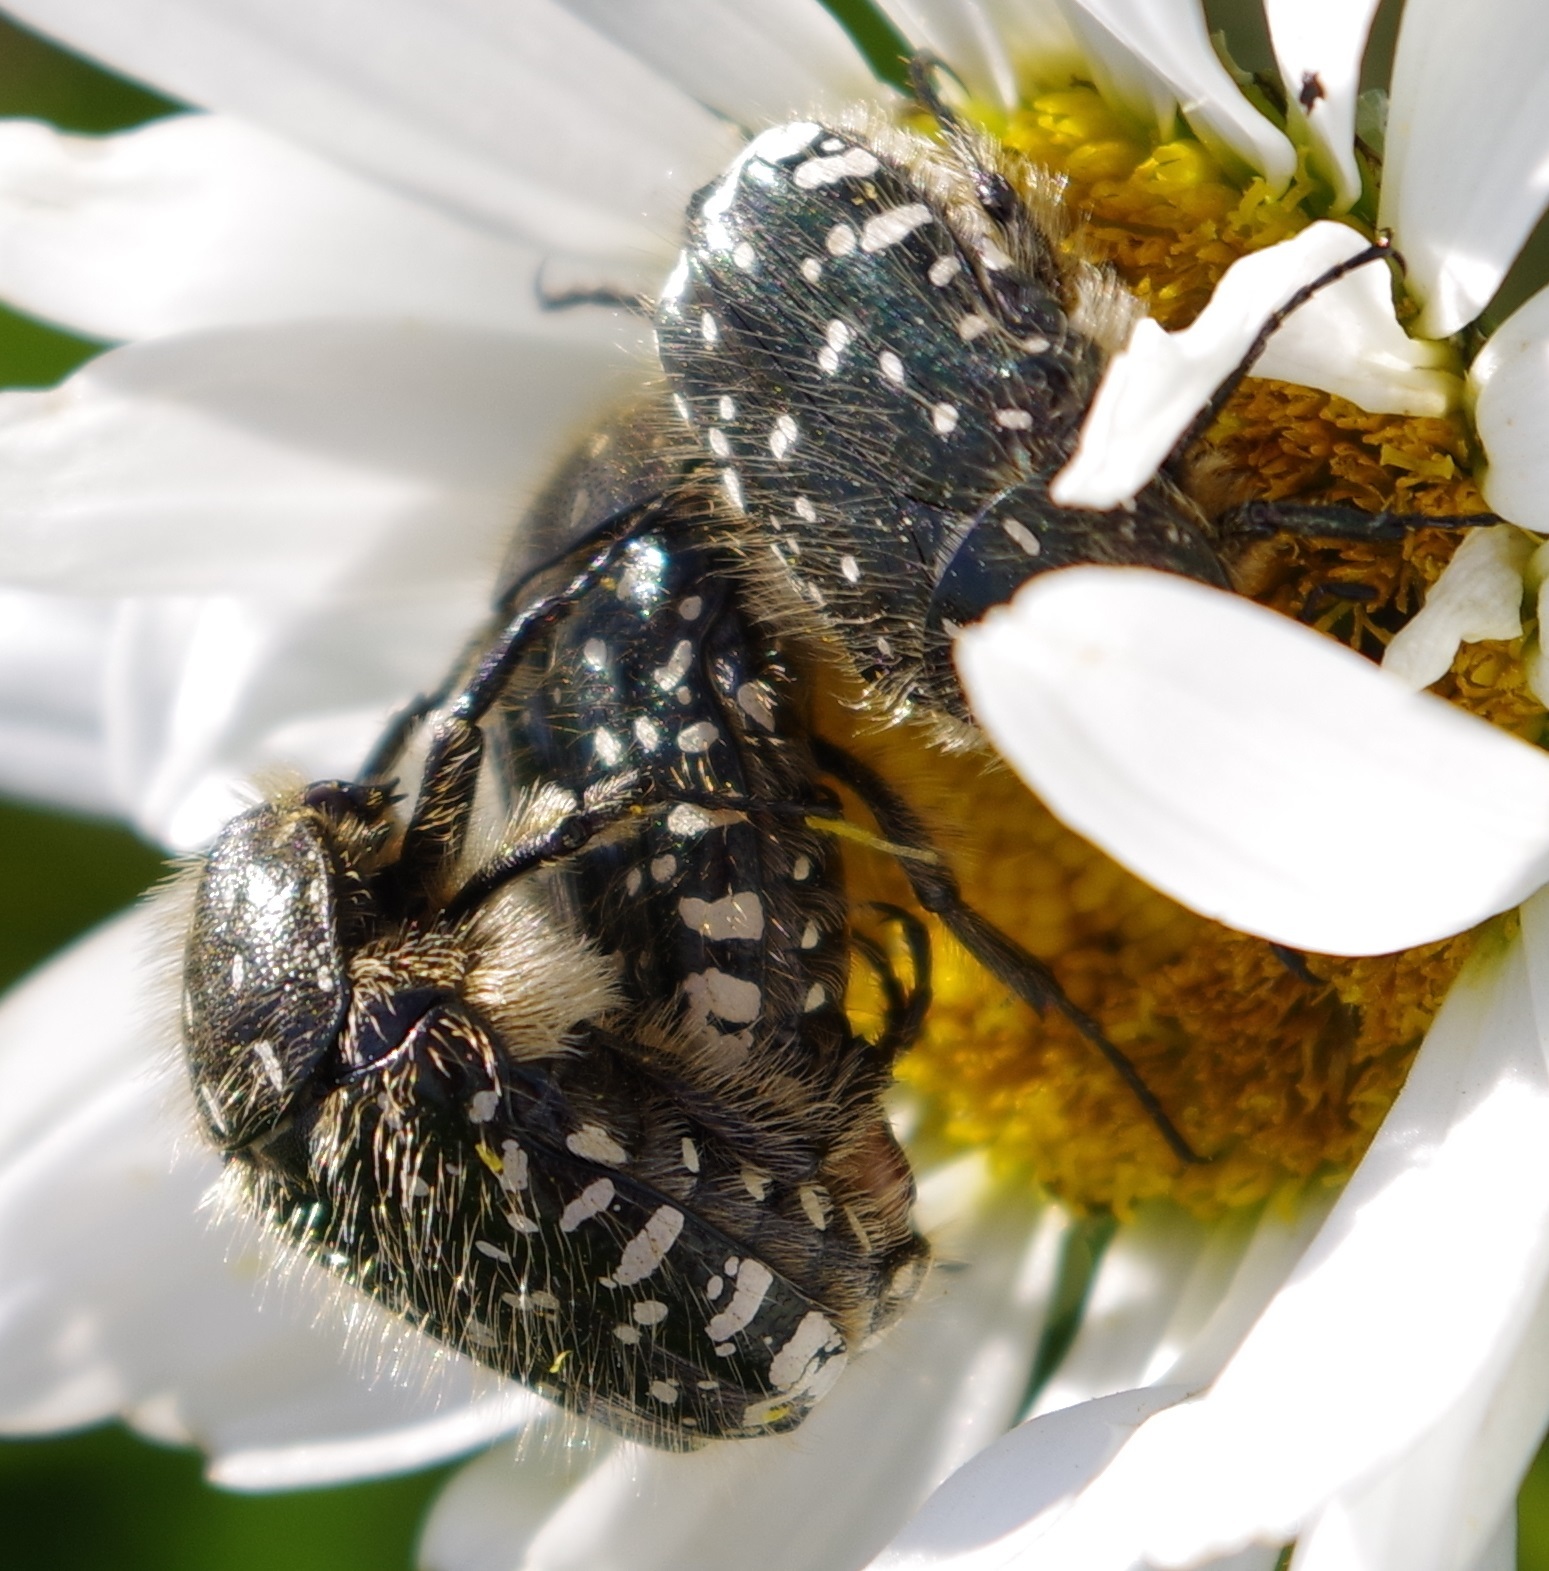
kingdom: Animalia
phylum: Arthropoda
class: Insecta
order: Coleoptera
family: Scarabaeidae
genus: Oxythyrea
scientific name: Oxythyrea funesta
